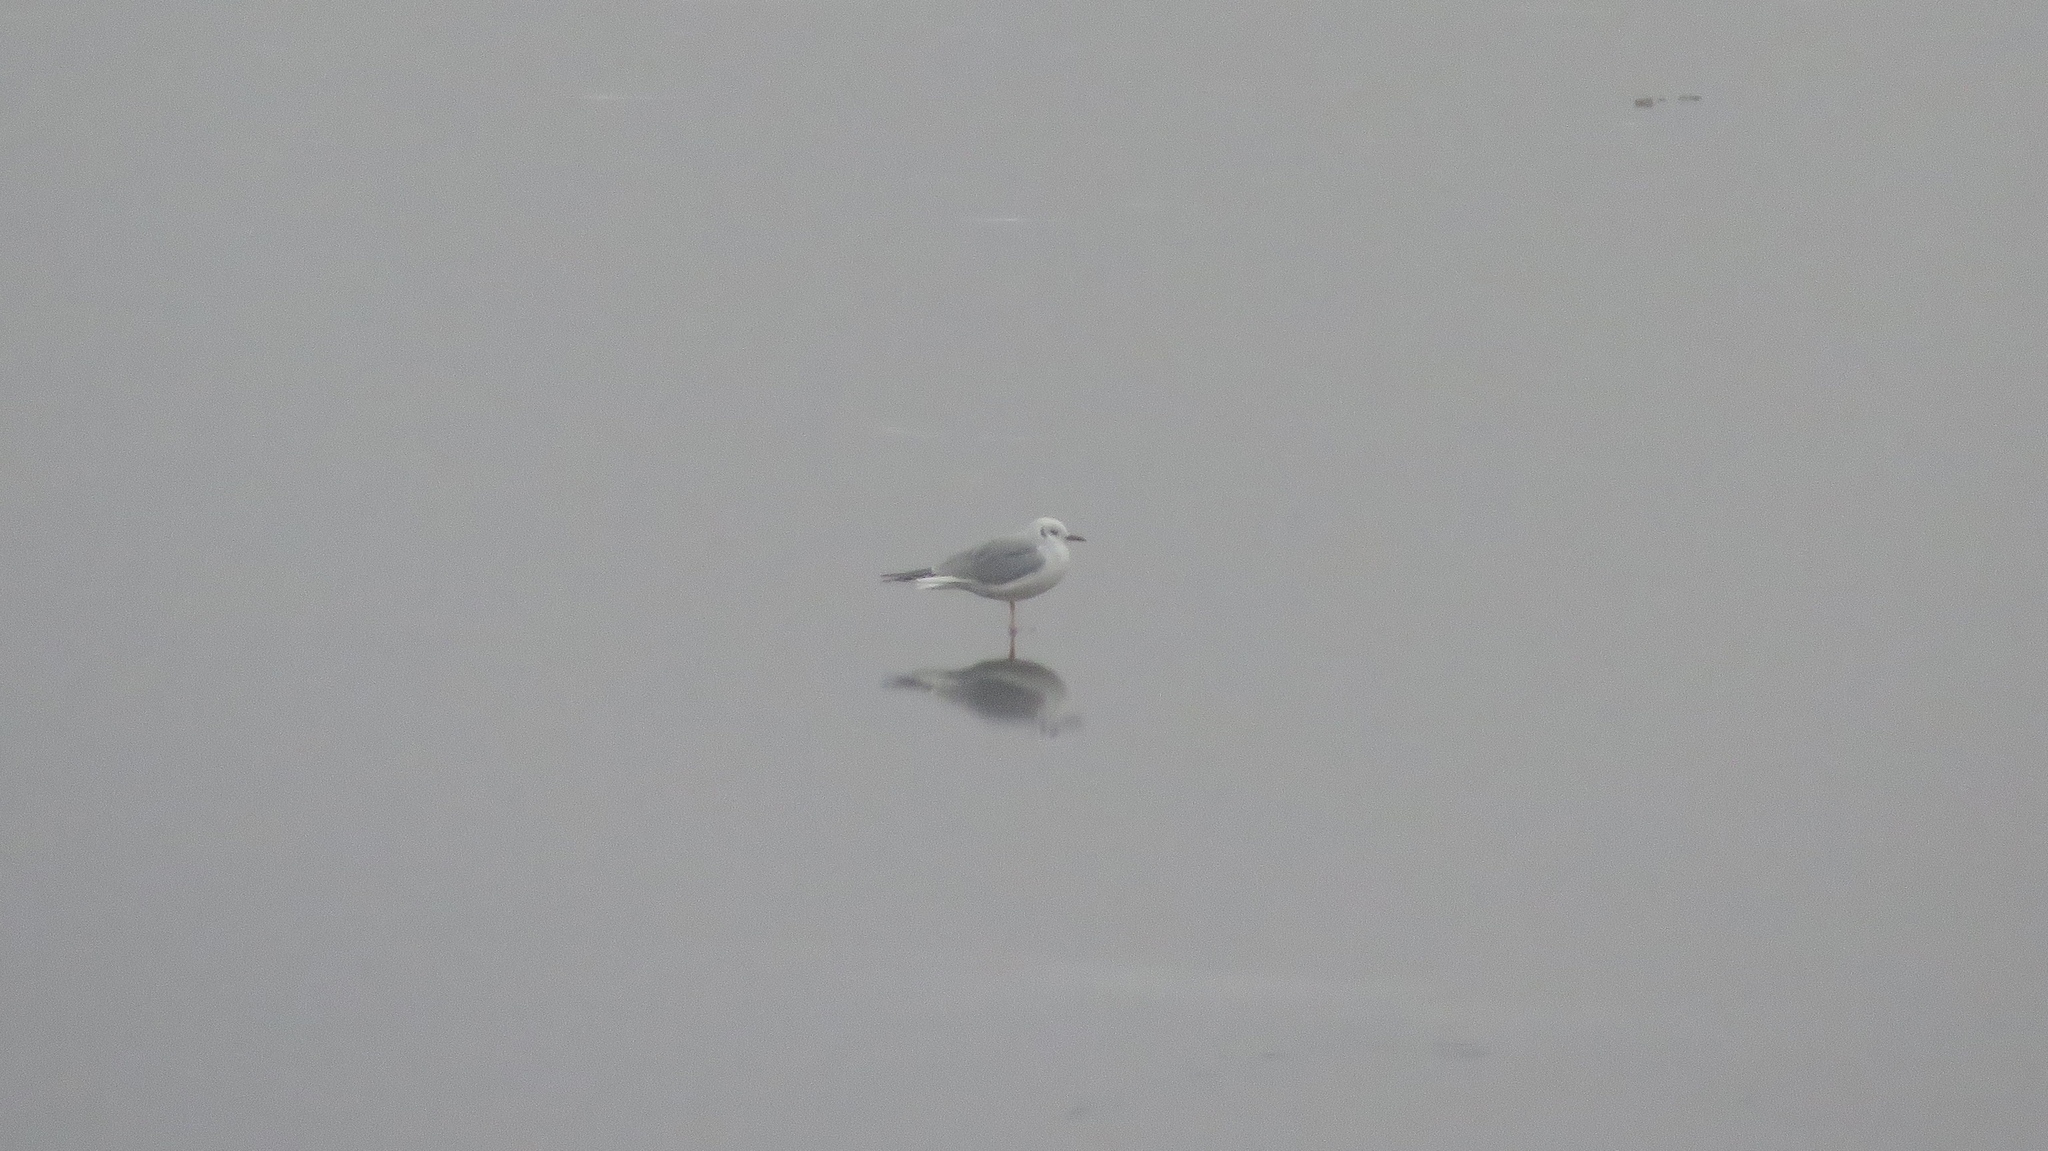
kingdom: Animalia
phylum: Chordata
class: Aves
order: Charadriiformes
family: Laridae
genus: Chroicocephalus
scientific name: Chroicocephalus philadelphia
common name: Bonaparte's gull
